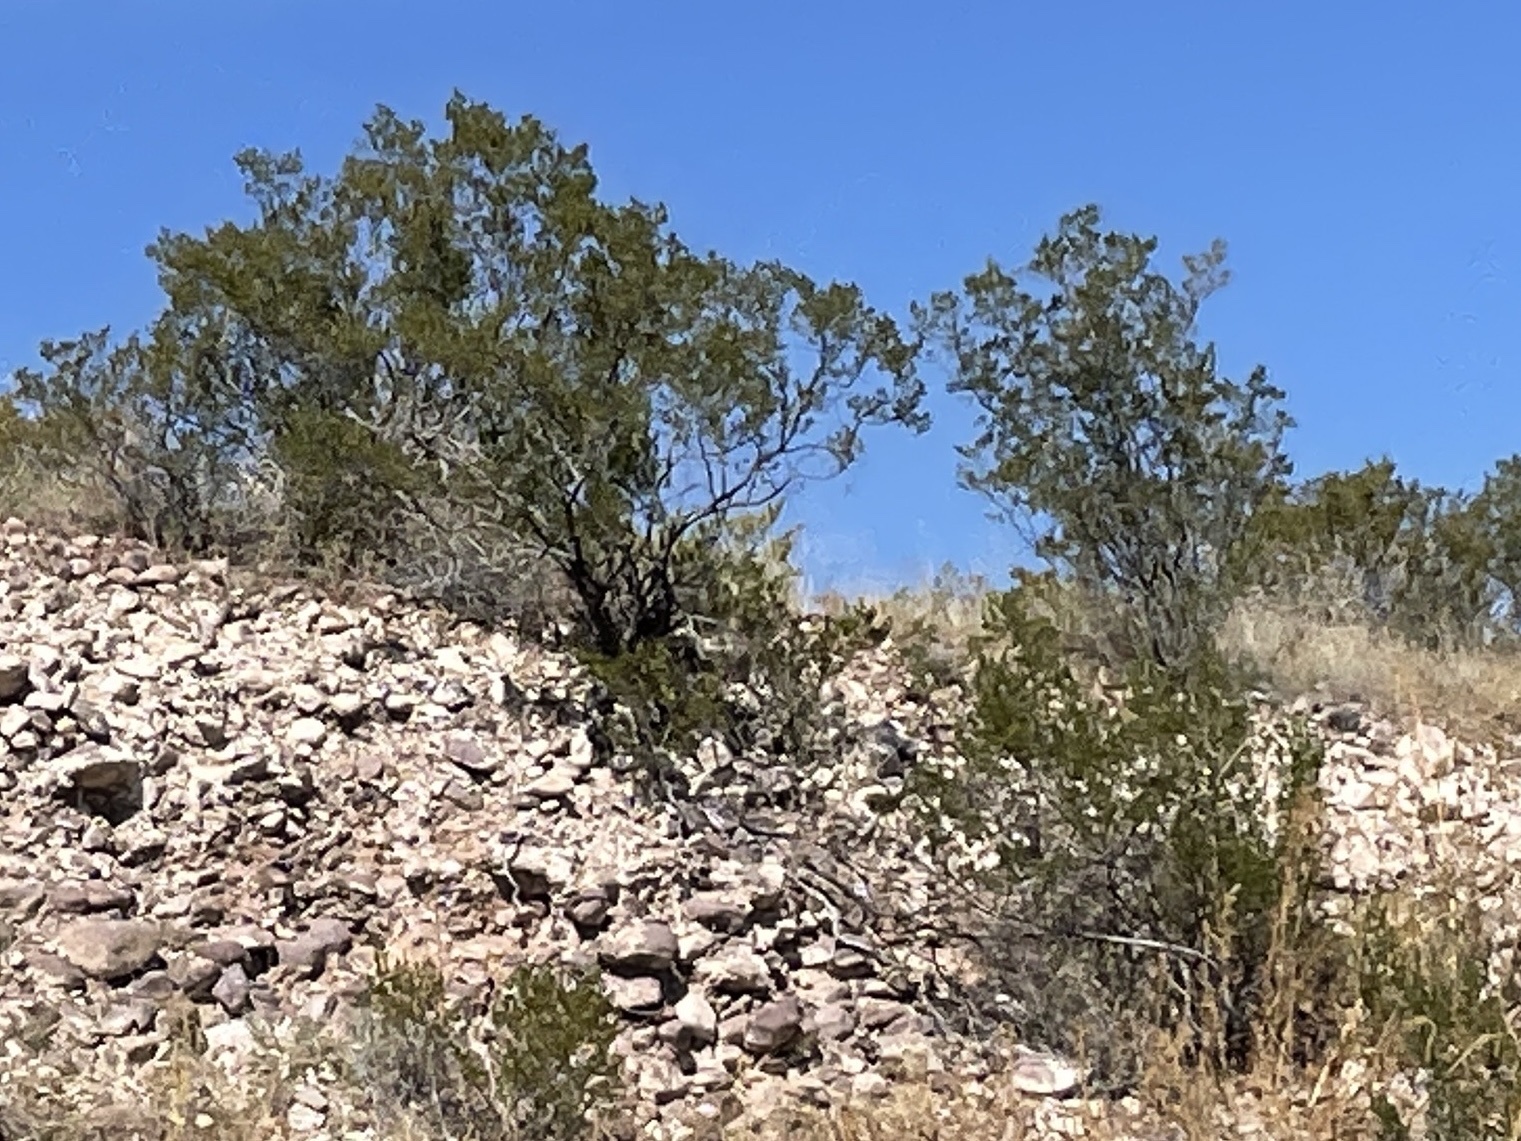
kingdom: Plantae
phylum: Tracheophyta
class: Magnoliopsida
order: Zygophyllales
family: Zygophyllaceae
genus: Larrea
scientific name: Larrea tridentata
